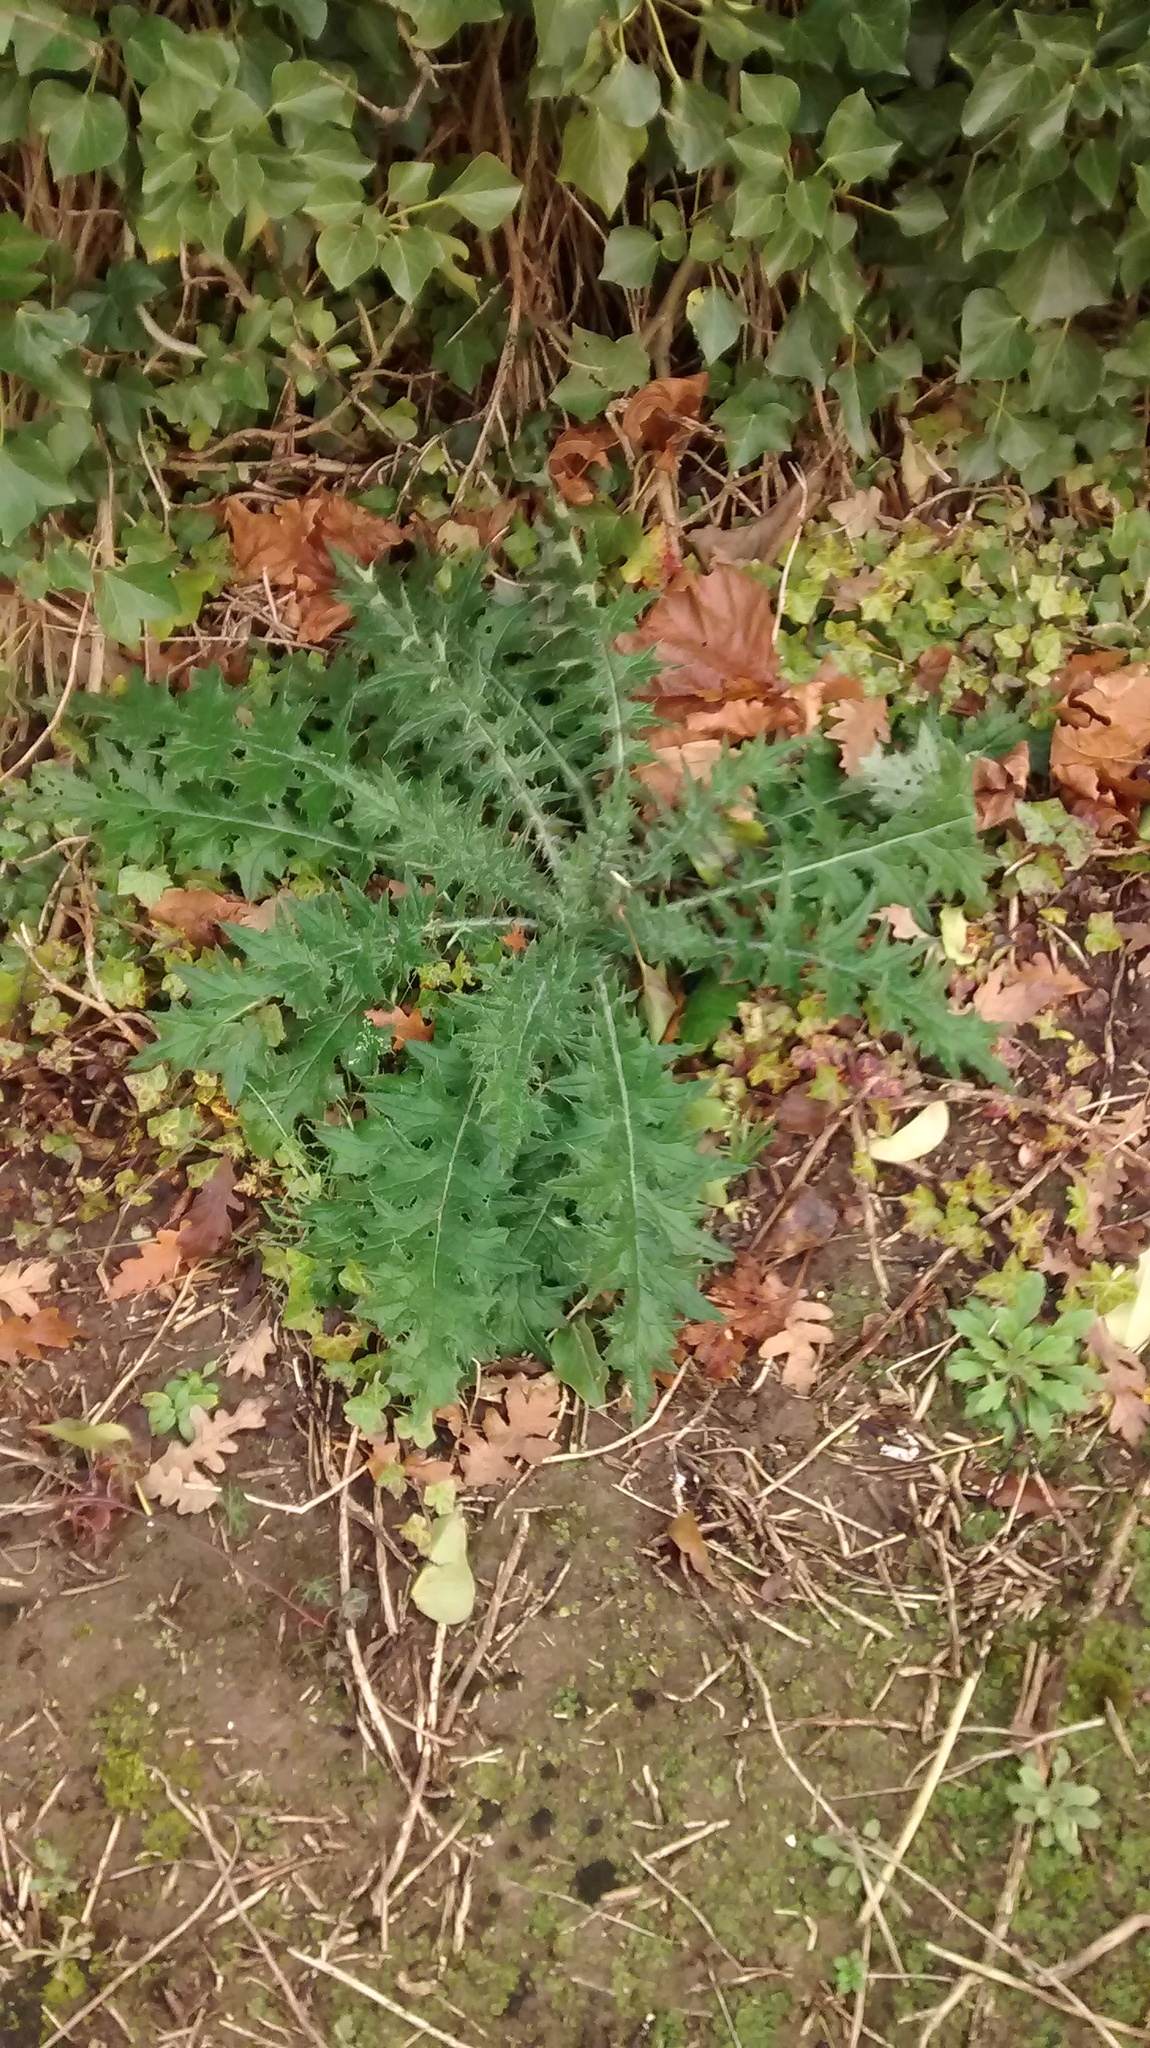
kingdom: Plantae
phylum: Tracheophyta
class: Magnoliopsida
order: Asterales
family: Asteraceae
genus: Cirsium
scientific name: Cirsium vulgare
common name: Bull thistle
